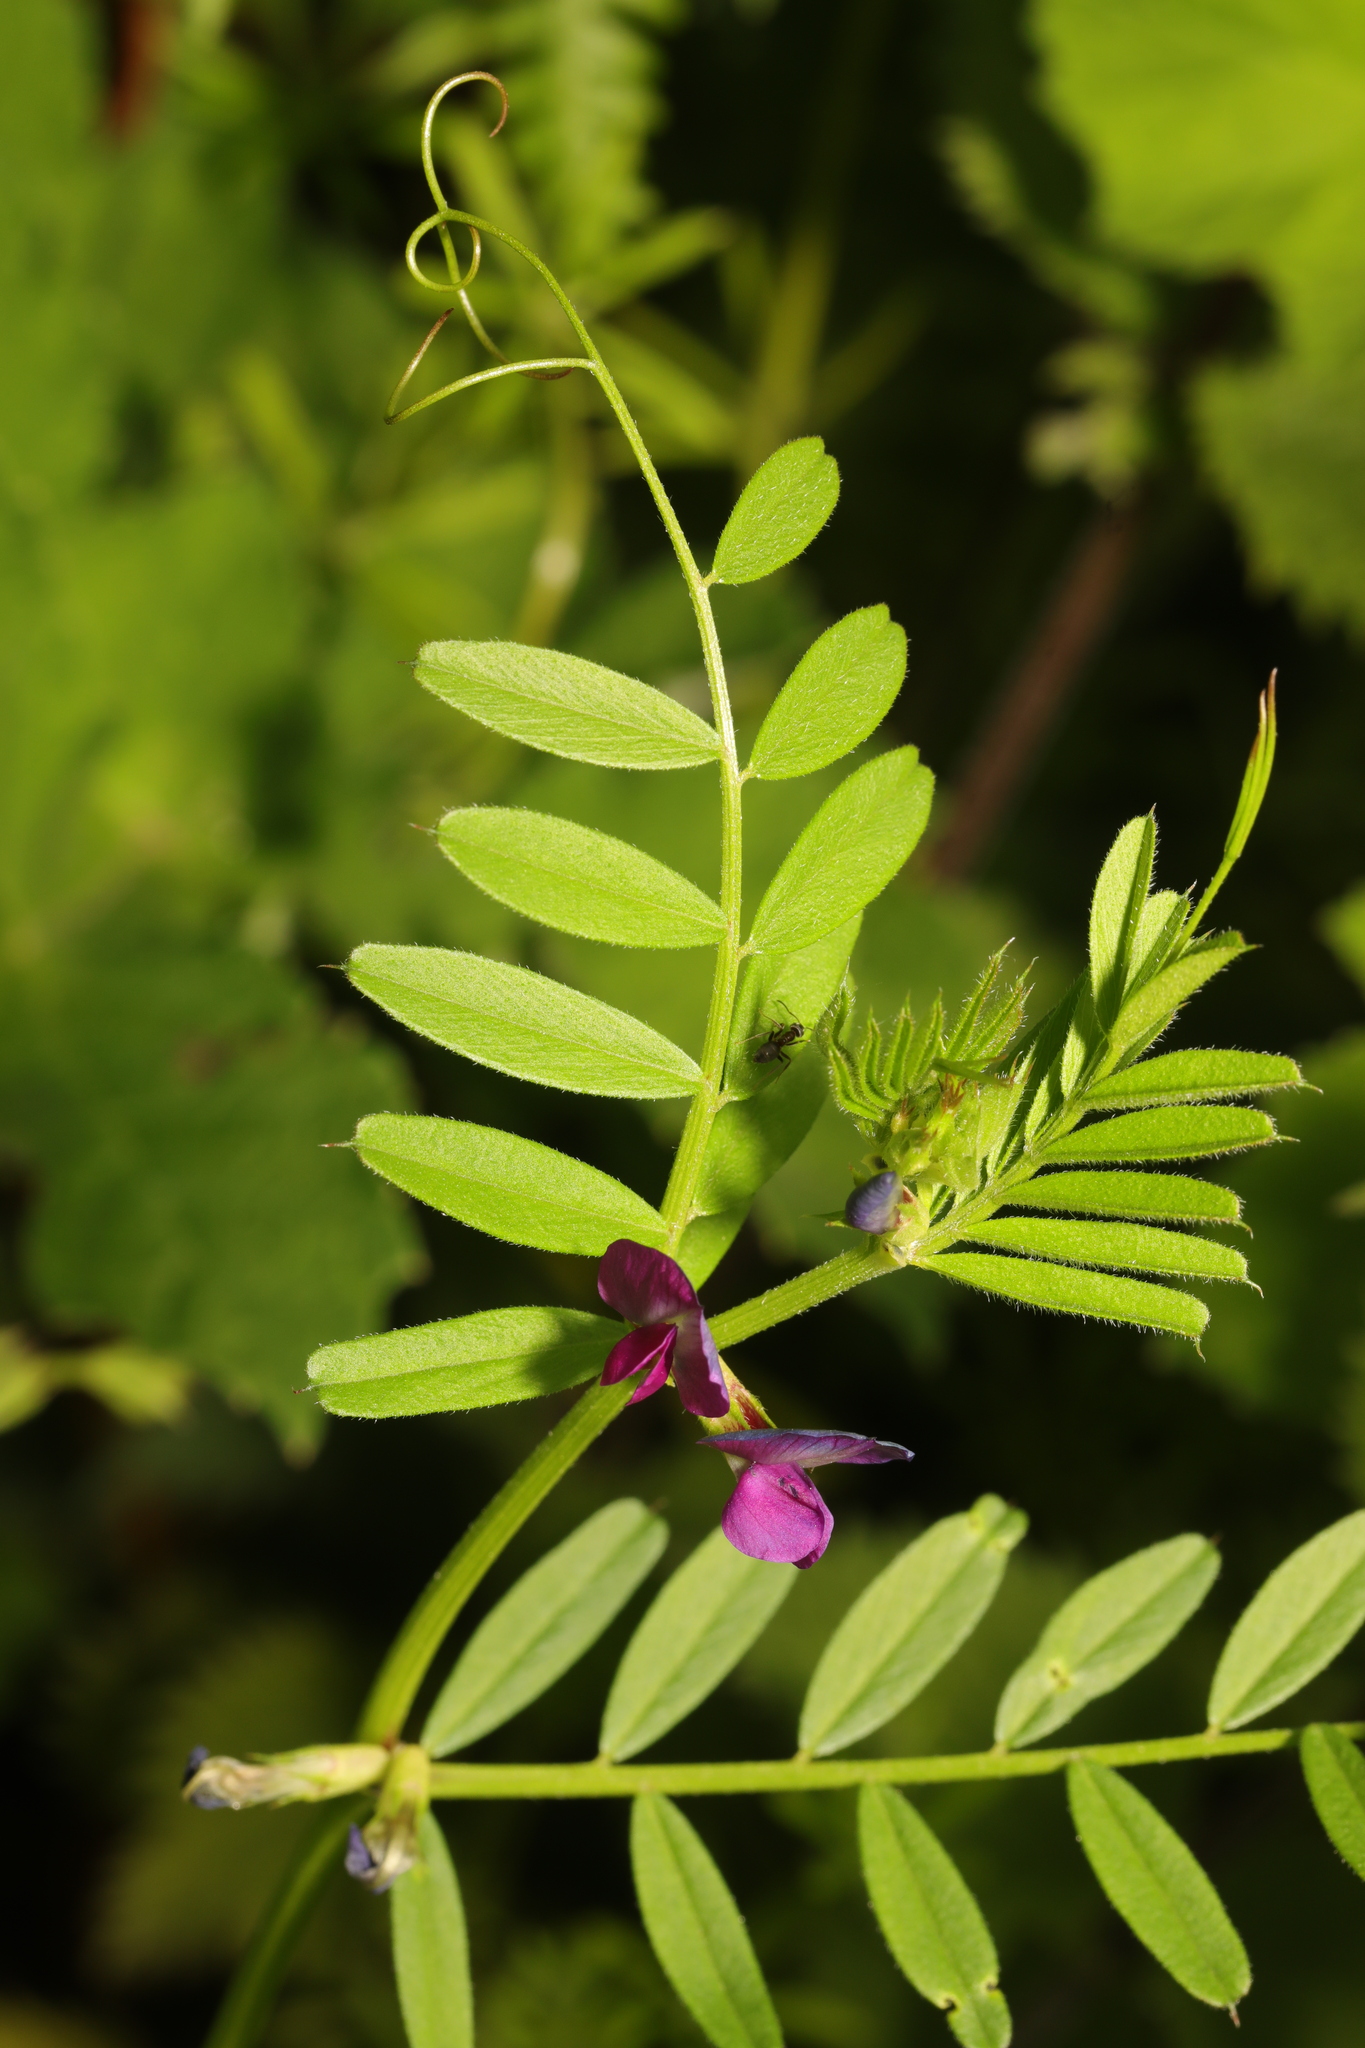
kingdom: Plantae
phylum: Tracheophyta
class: Magnoliopsida
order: Fabales
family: Fabaceae
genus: Vicia
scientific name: Vicia sativa
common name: Garden vetch
